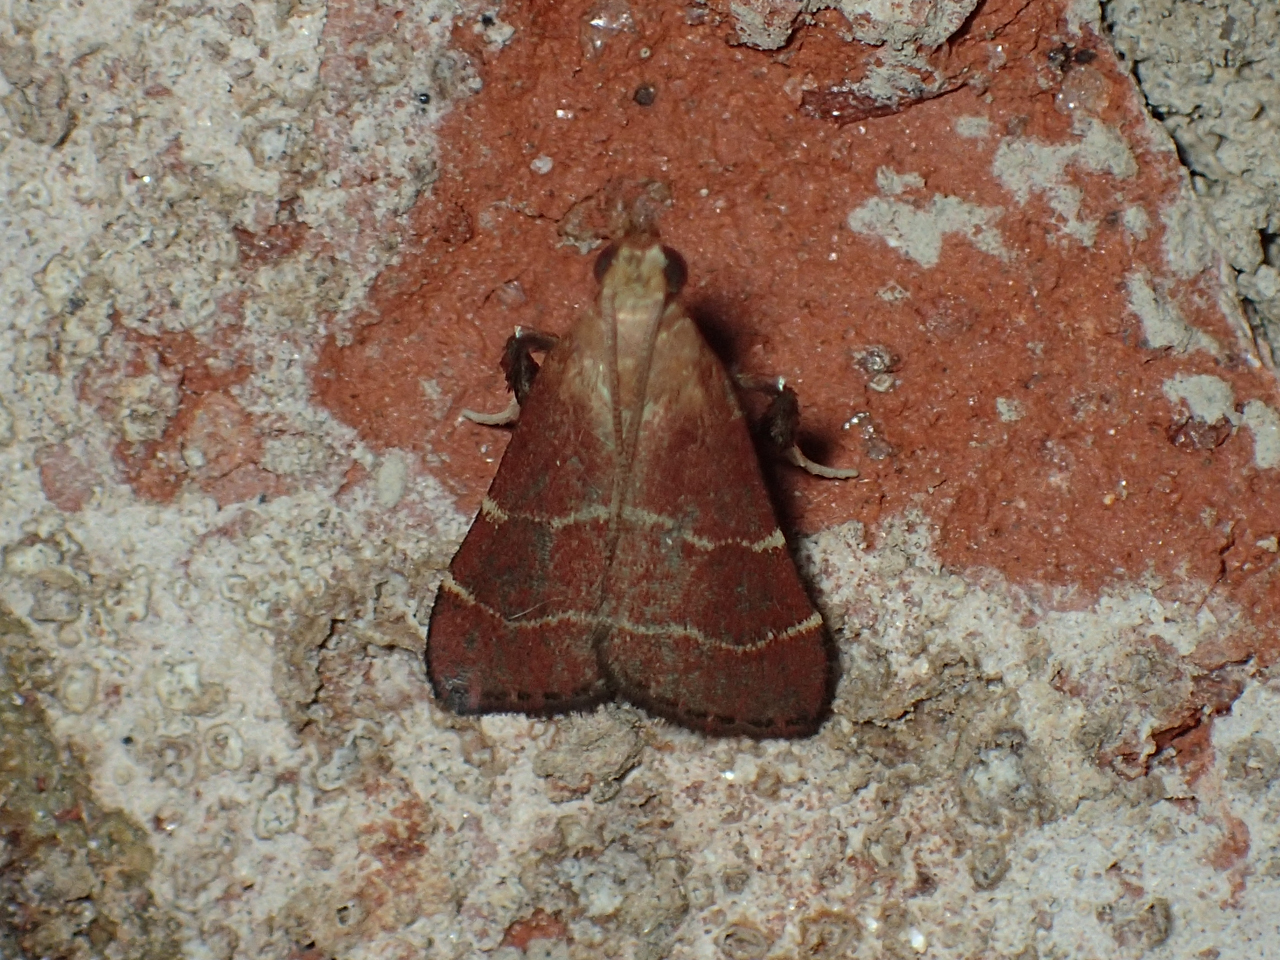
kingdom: Animalia
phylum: Arthropoda
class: Insecta
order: Lepidoptera
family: Pyralidae
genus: Arta
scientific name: Arta statalis
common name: Posturing arta moth
